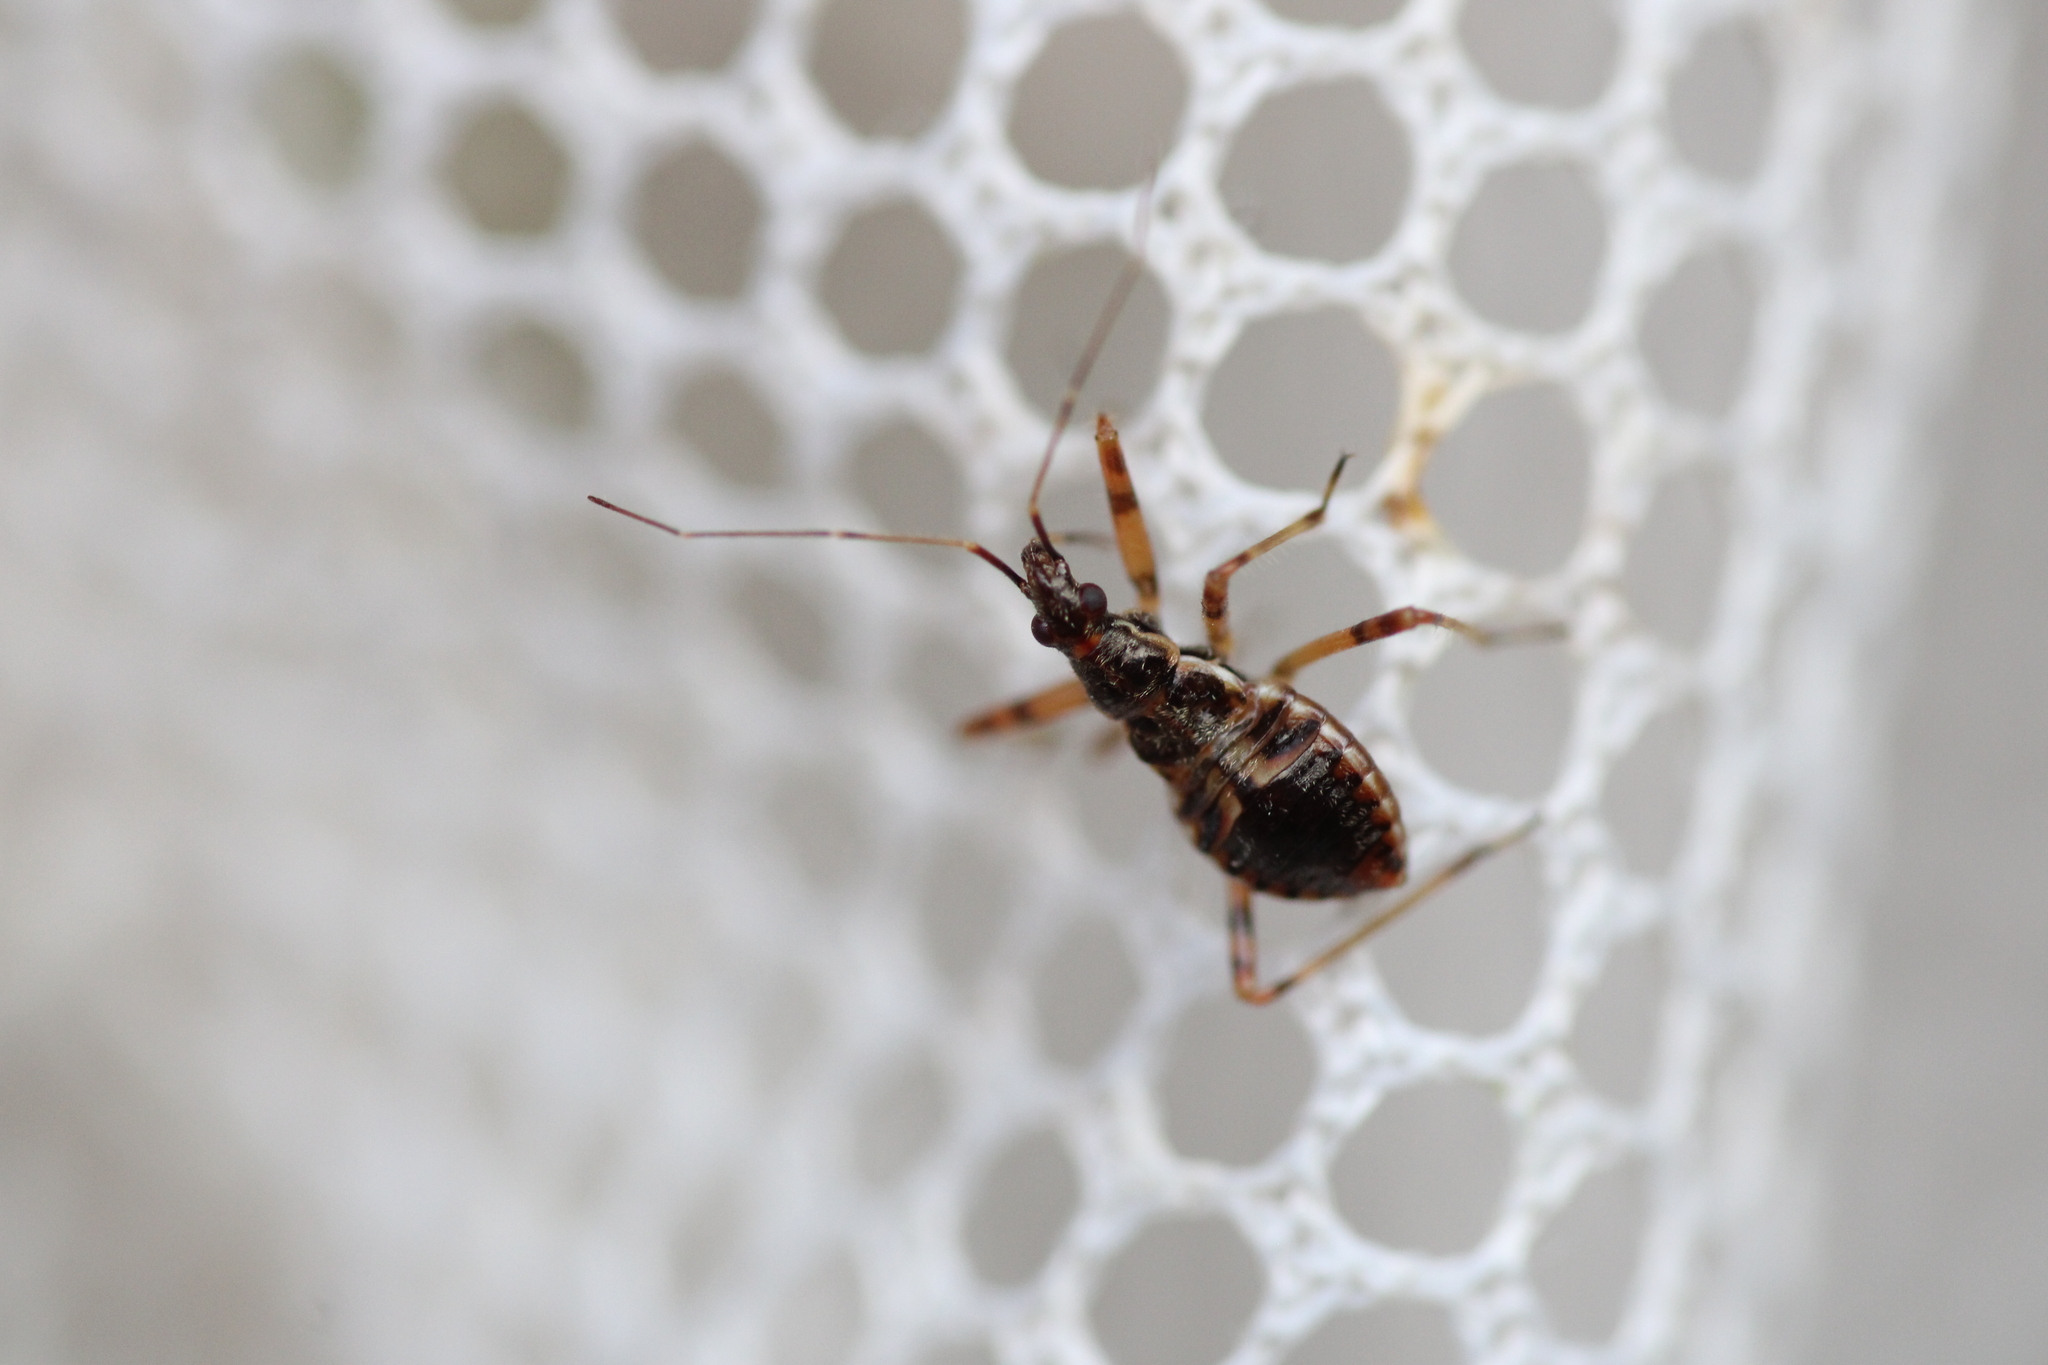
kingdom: Animalia
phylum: Arthropoda
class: Insecta
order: Hemiptera
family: Nabidae
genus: Himacerus
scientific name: Himacerus apterus
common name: Tree damsel bug
